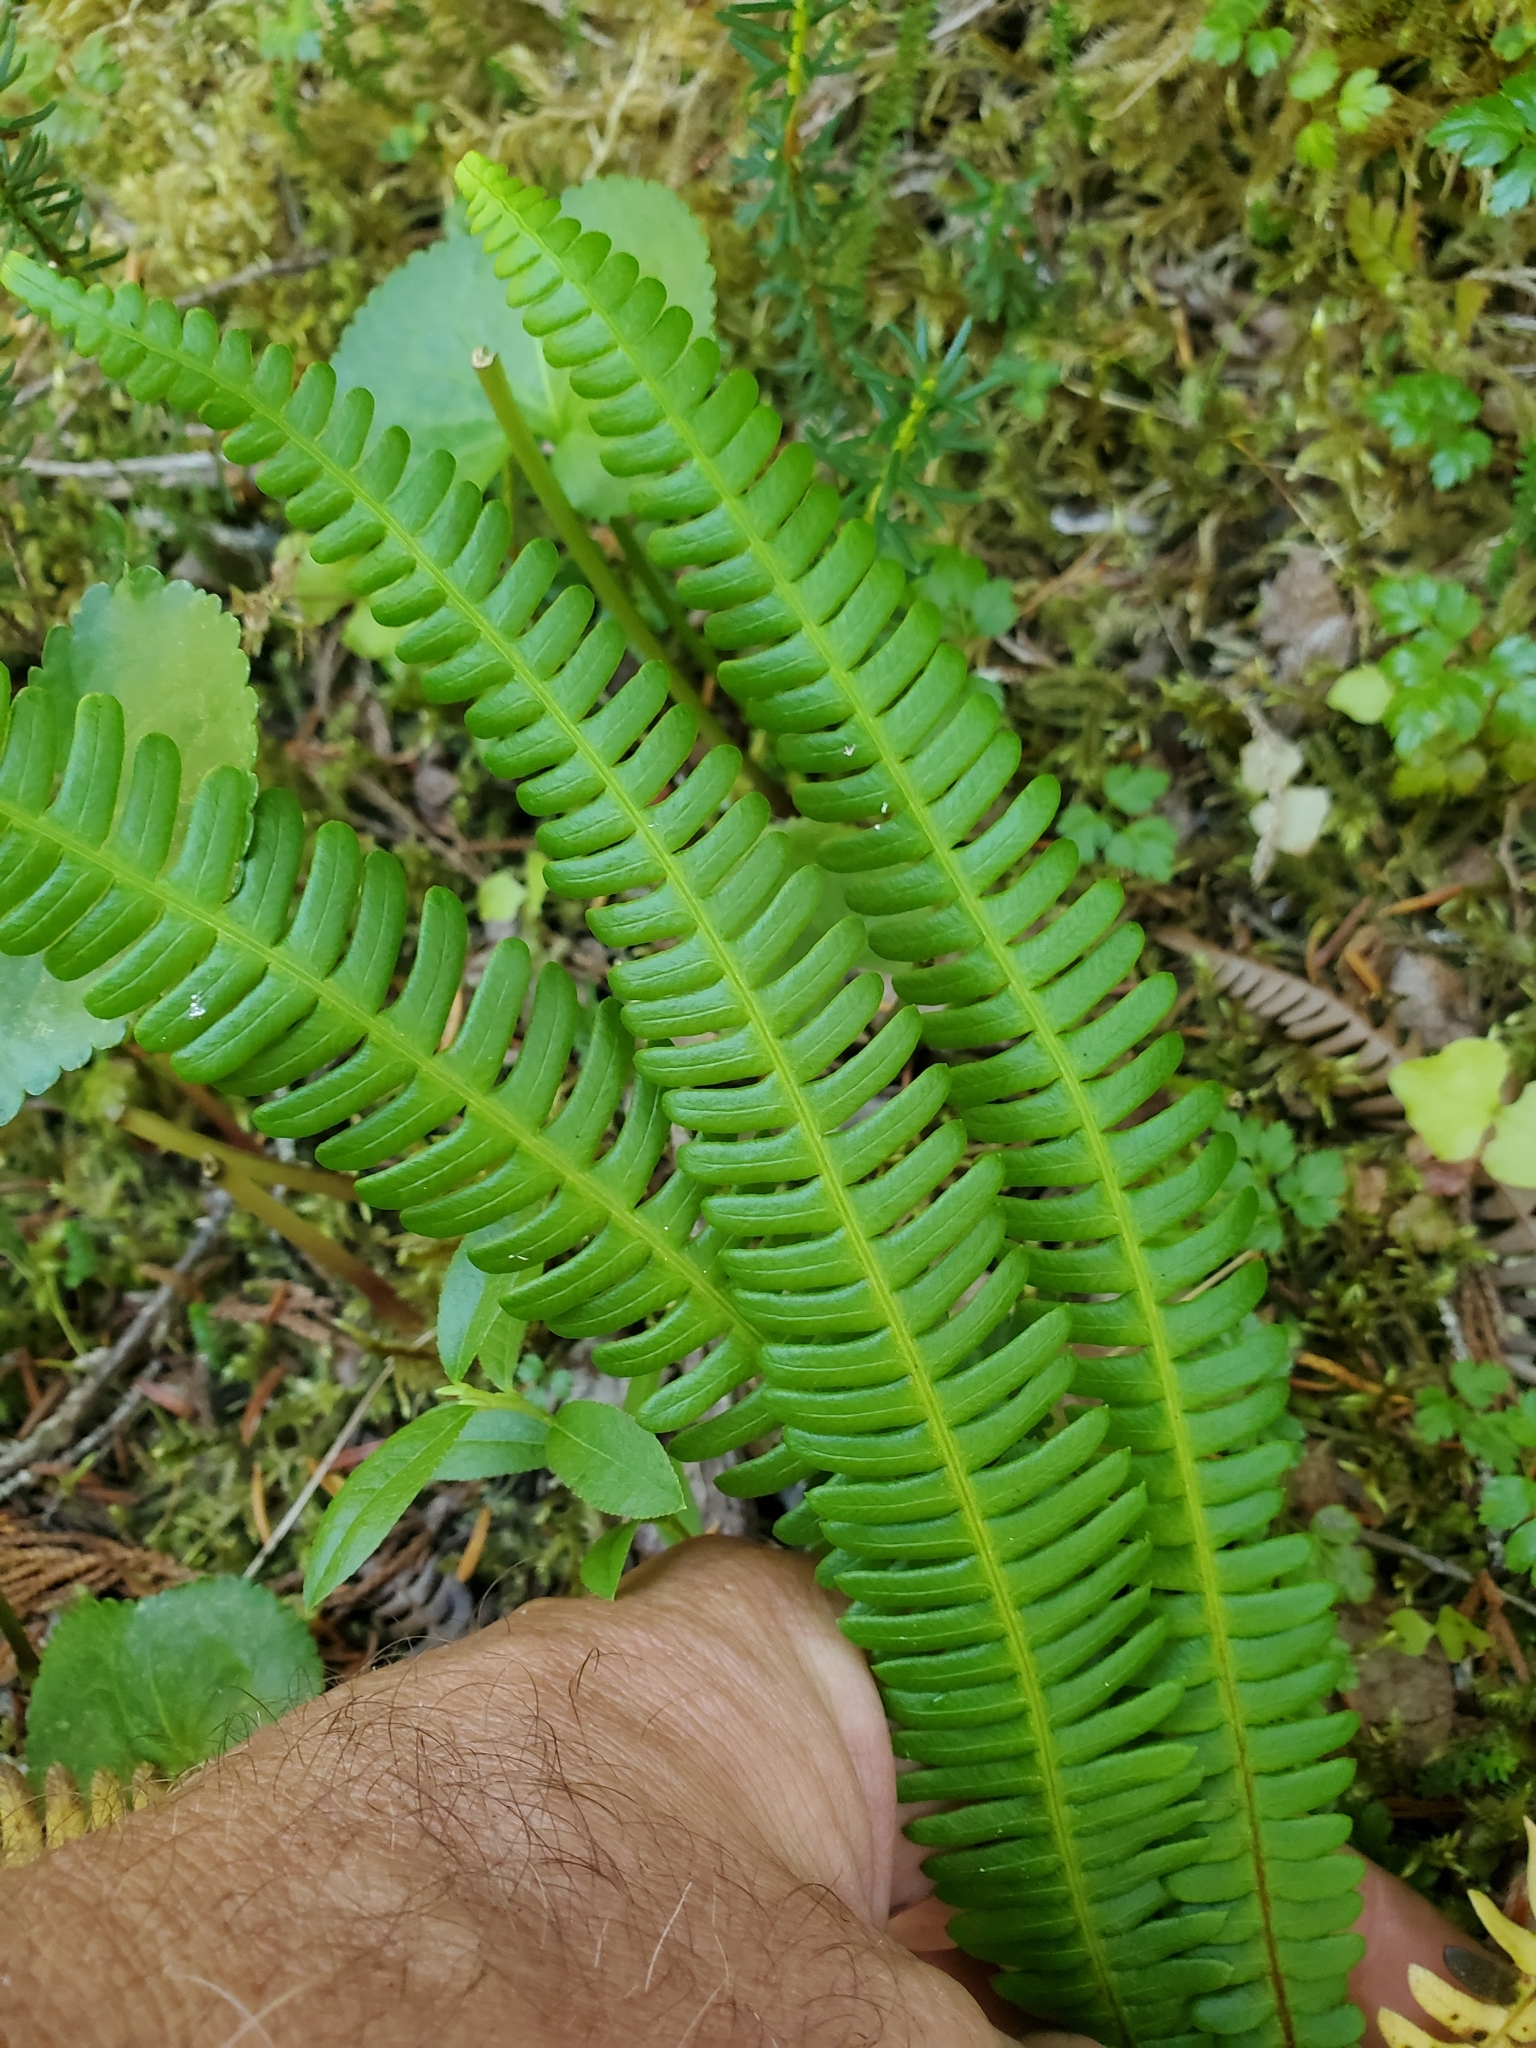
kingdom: Plantae
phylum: Tracheophyta
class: Polypodiopsida
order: Polypodiales
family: Blechnaceae
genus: Struthiopteris
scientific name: Struthiopteris spicant
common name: Deer fern
